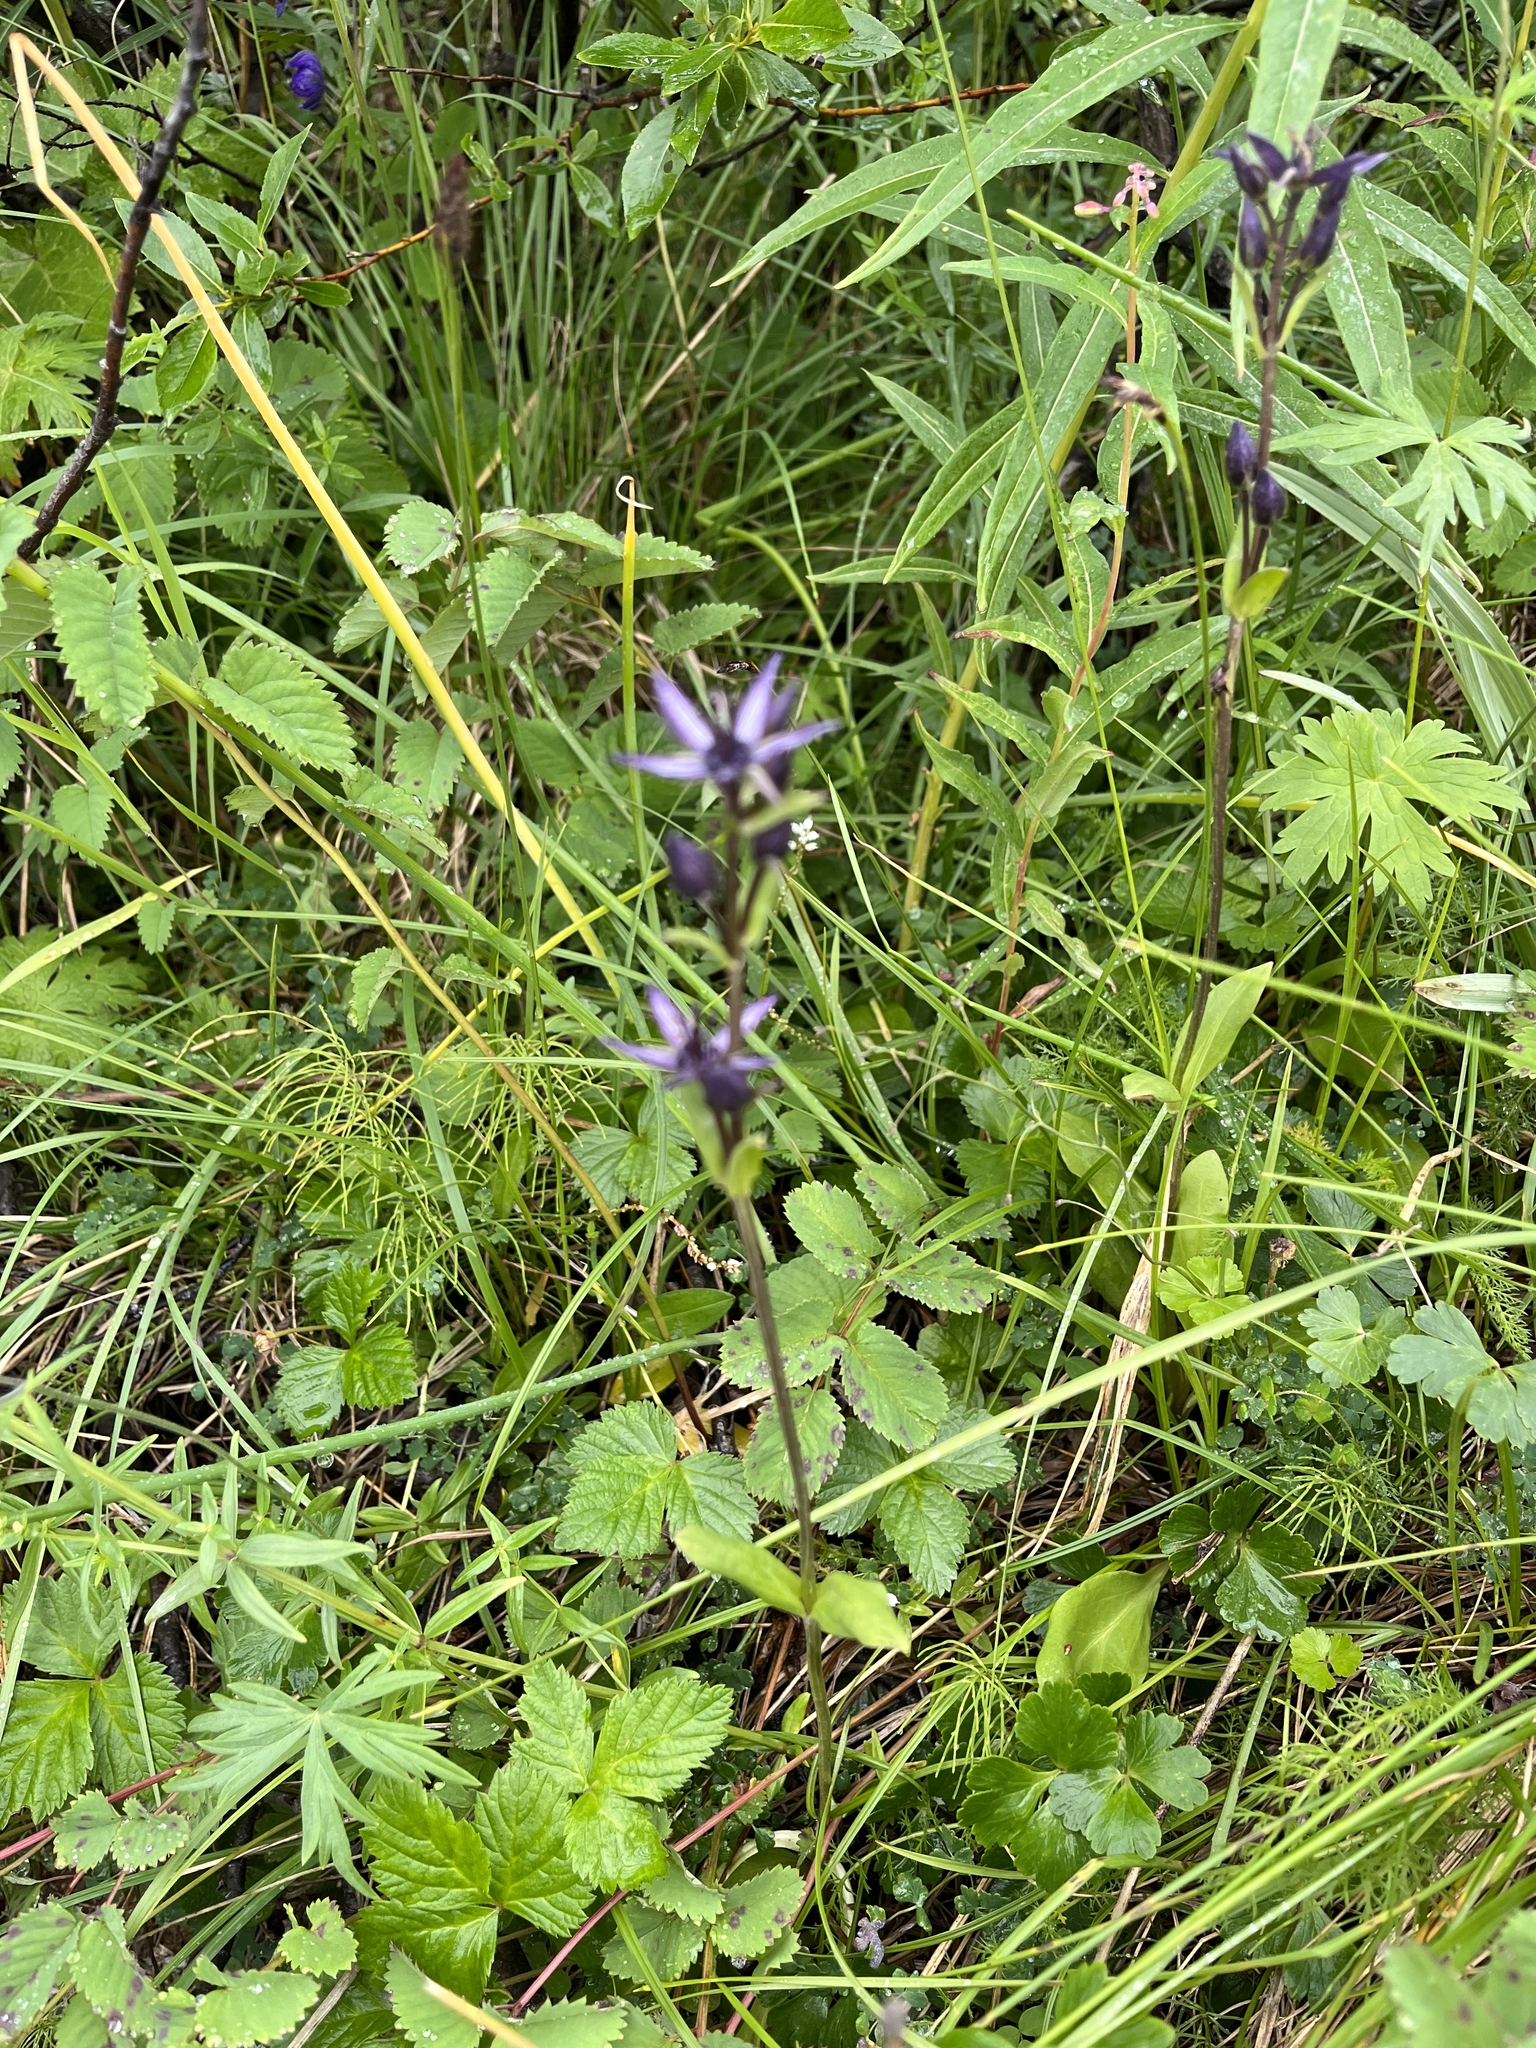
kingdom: Plantae
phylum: Tracheophyta
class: Magnoliopsida
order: Gentianales
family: Gentianaceae
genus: Swertia
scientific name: Swertia perennis
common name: Alpine bog swertia
